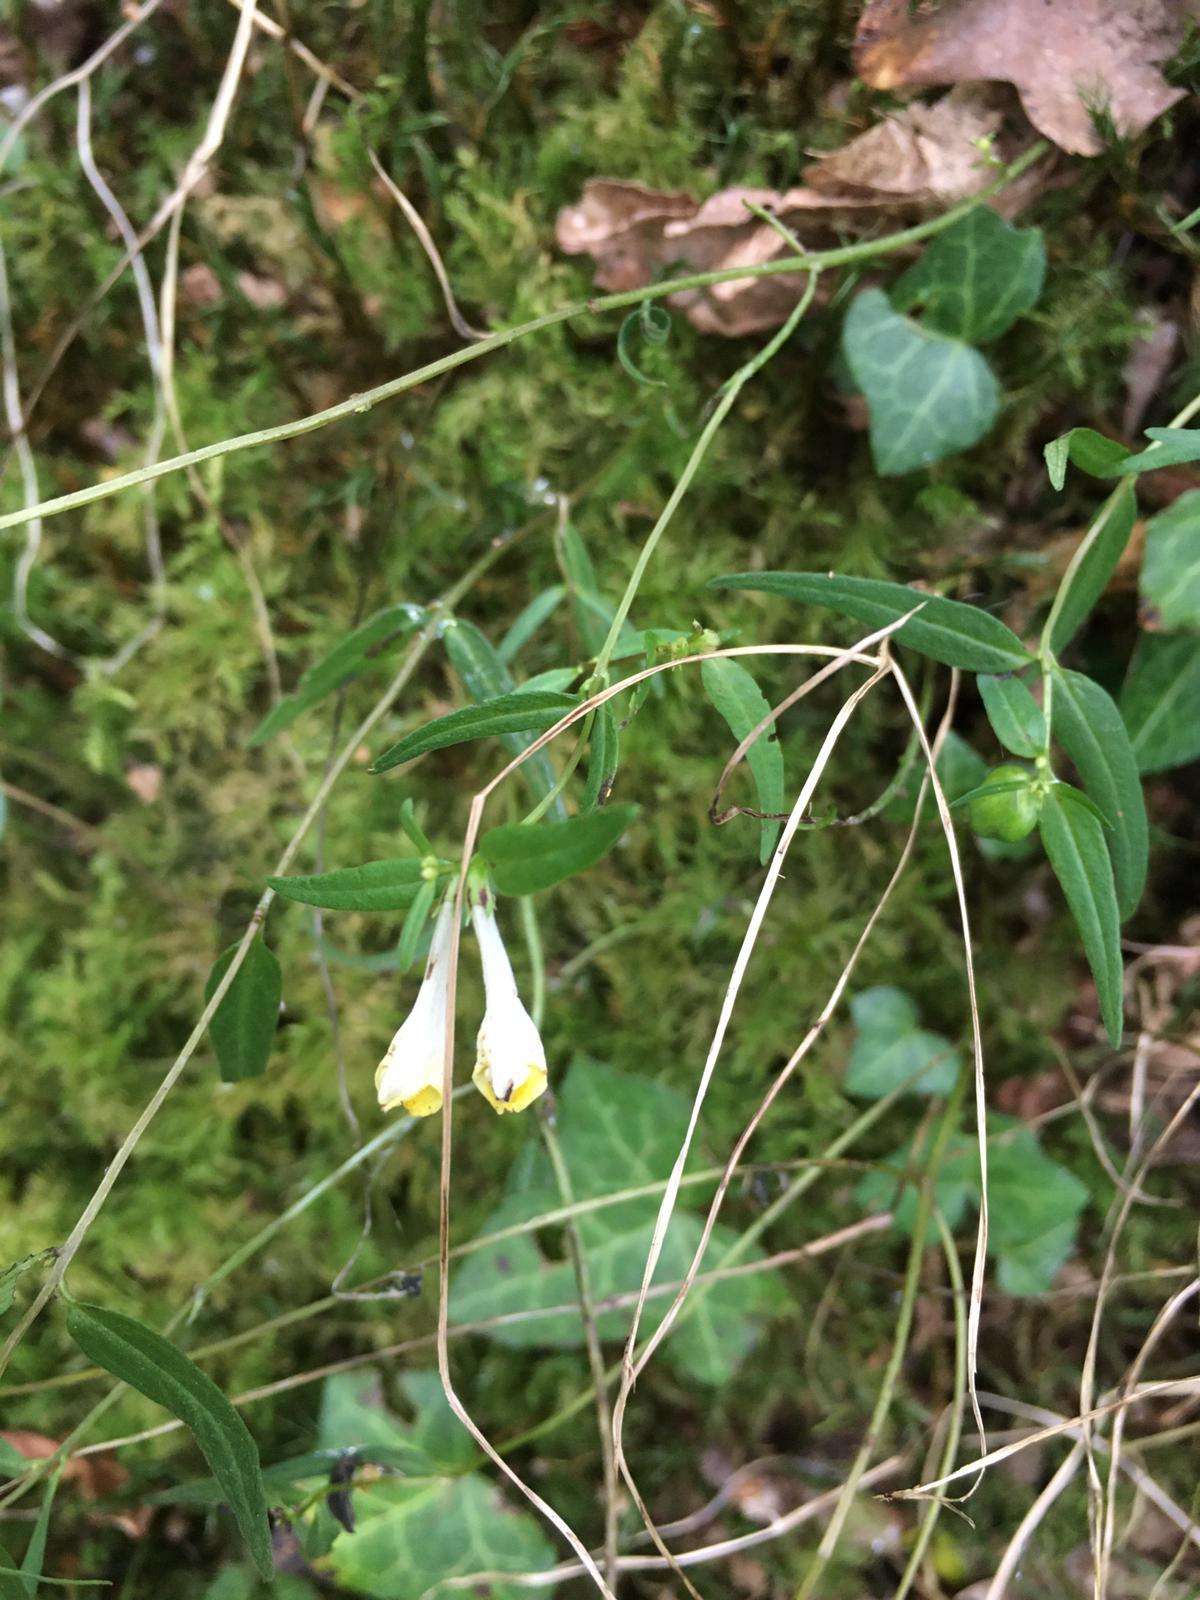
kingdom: Plantae
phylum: Tracheophyta
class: Magnoliopsida
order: Lamiales
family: Orobanchaceae
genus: Melampyrum
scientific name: Melampyrum pratense
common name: Common cow-wheat
